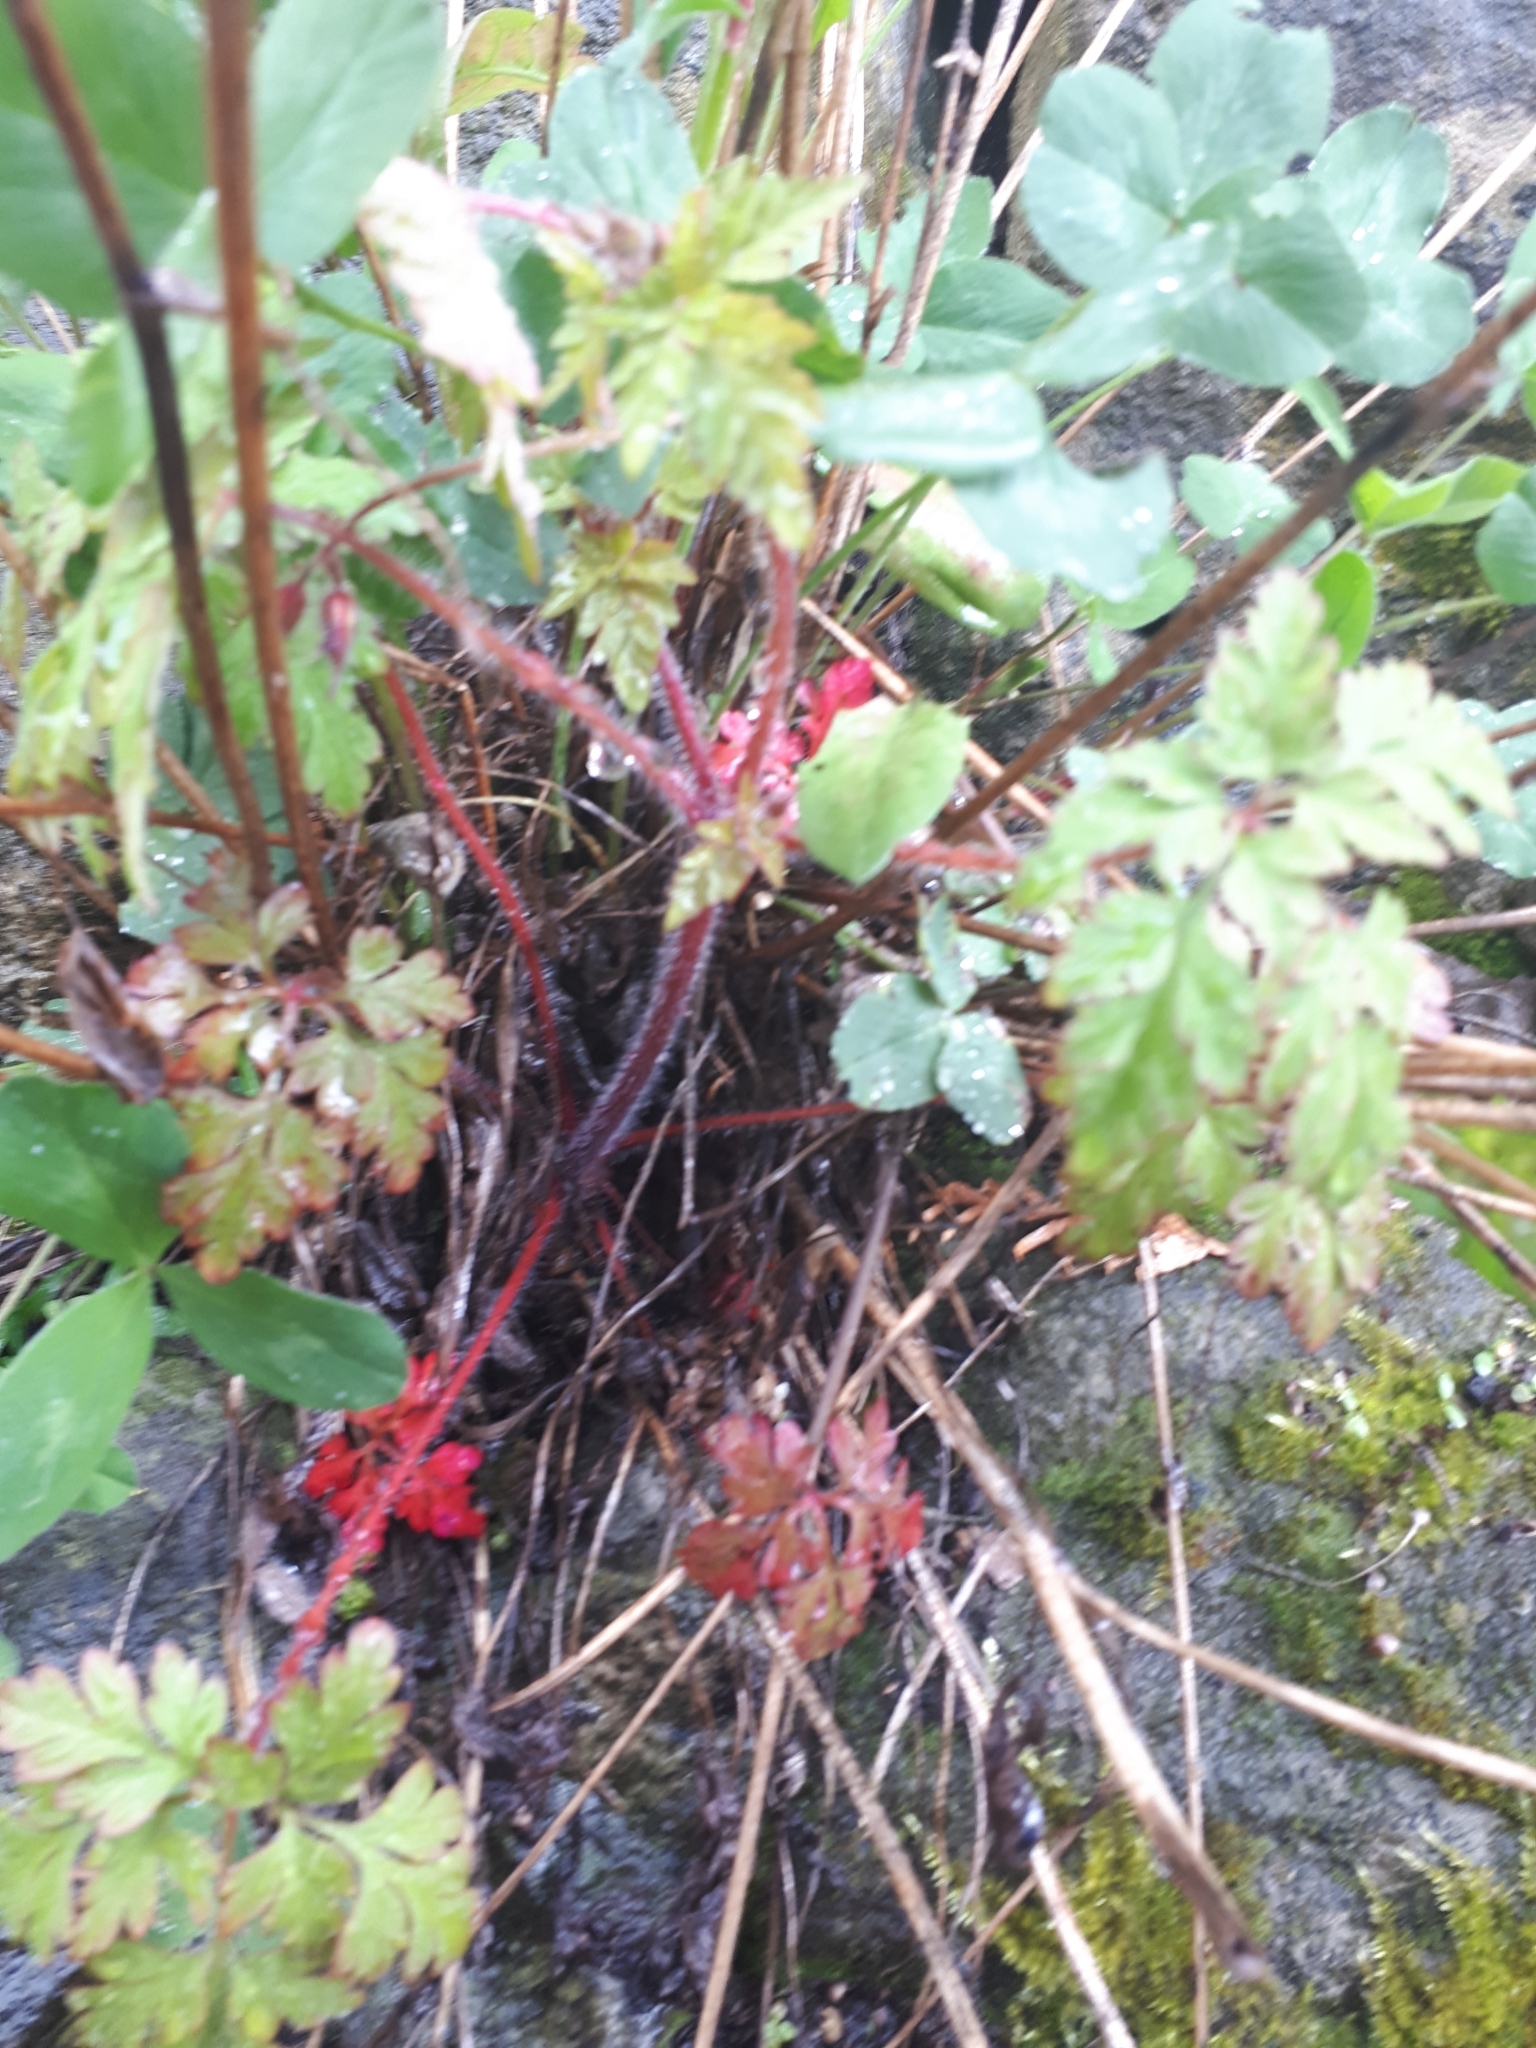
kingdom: Plantae
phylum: Tracheophyta
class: Magnoliopsida
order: Geraniales
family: Geraniaceae
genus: Geranium
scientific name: Geranium robertianum
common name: Herb-robert
